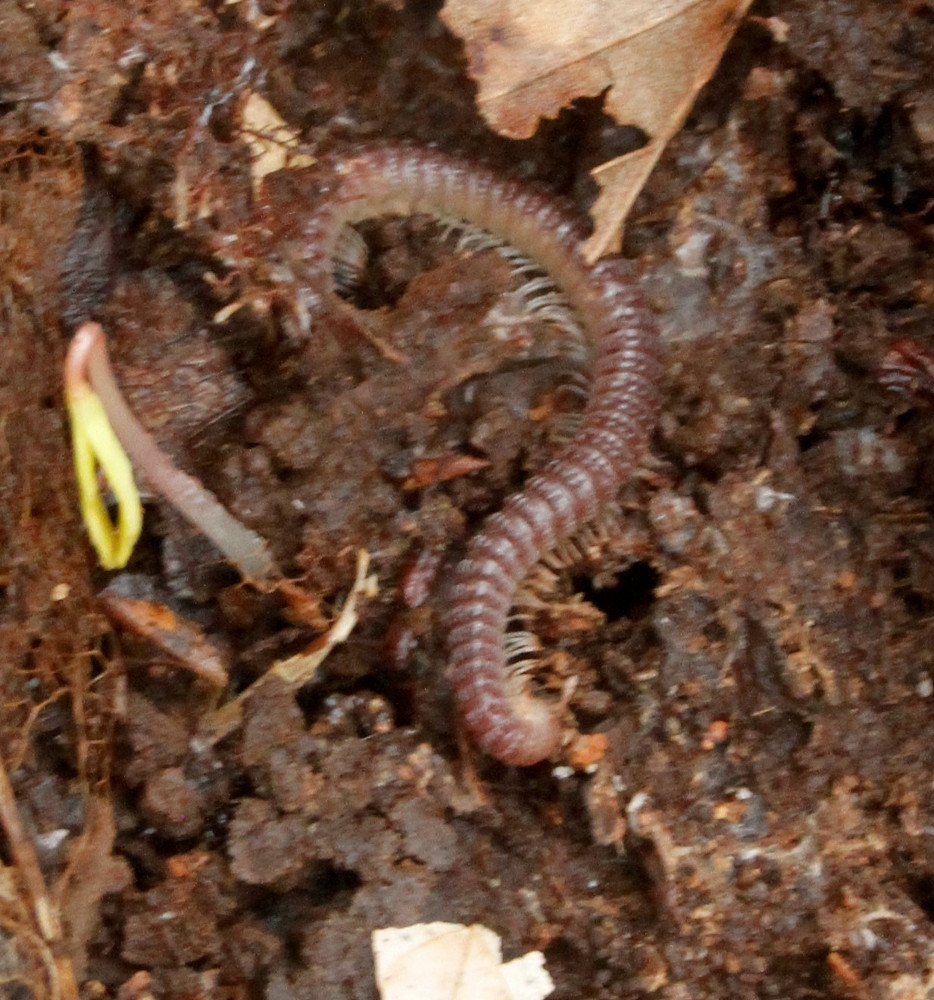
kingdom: Animalia
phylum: Arthropoda
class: Diplopoda
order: Spirostreptida
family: Cambalidae
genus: Cambala
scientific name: Cambala annulata
